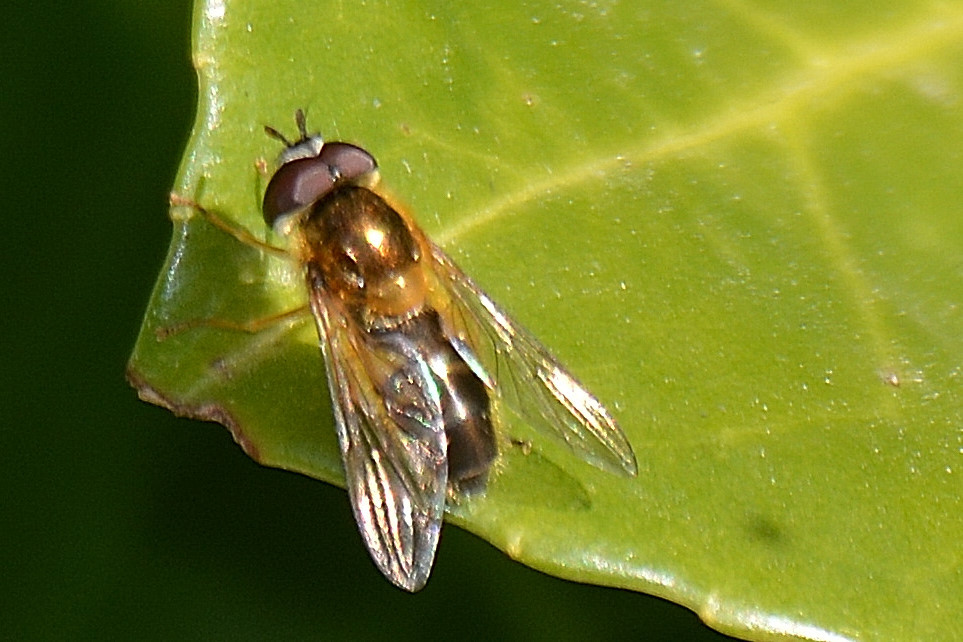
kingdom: Animalia
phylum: Arthropoda
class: Insecta
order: Diptera
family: Syrphidae
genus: Epistrophe
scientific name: Epistrophe eligans
